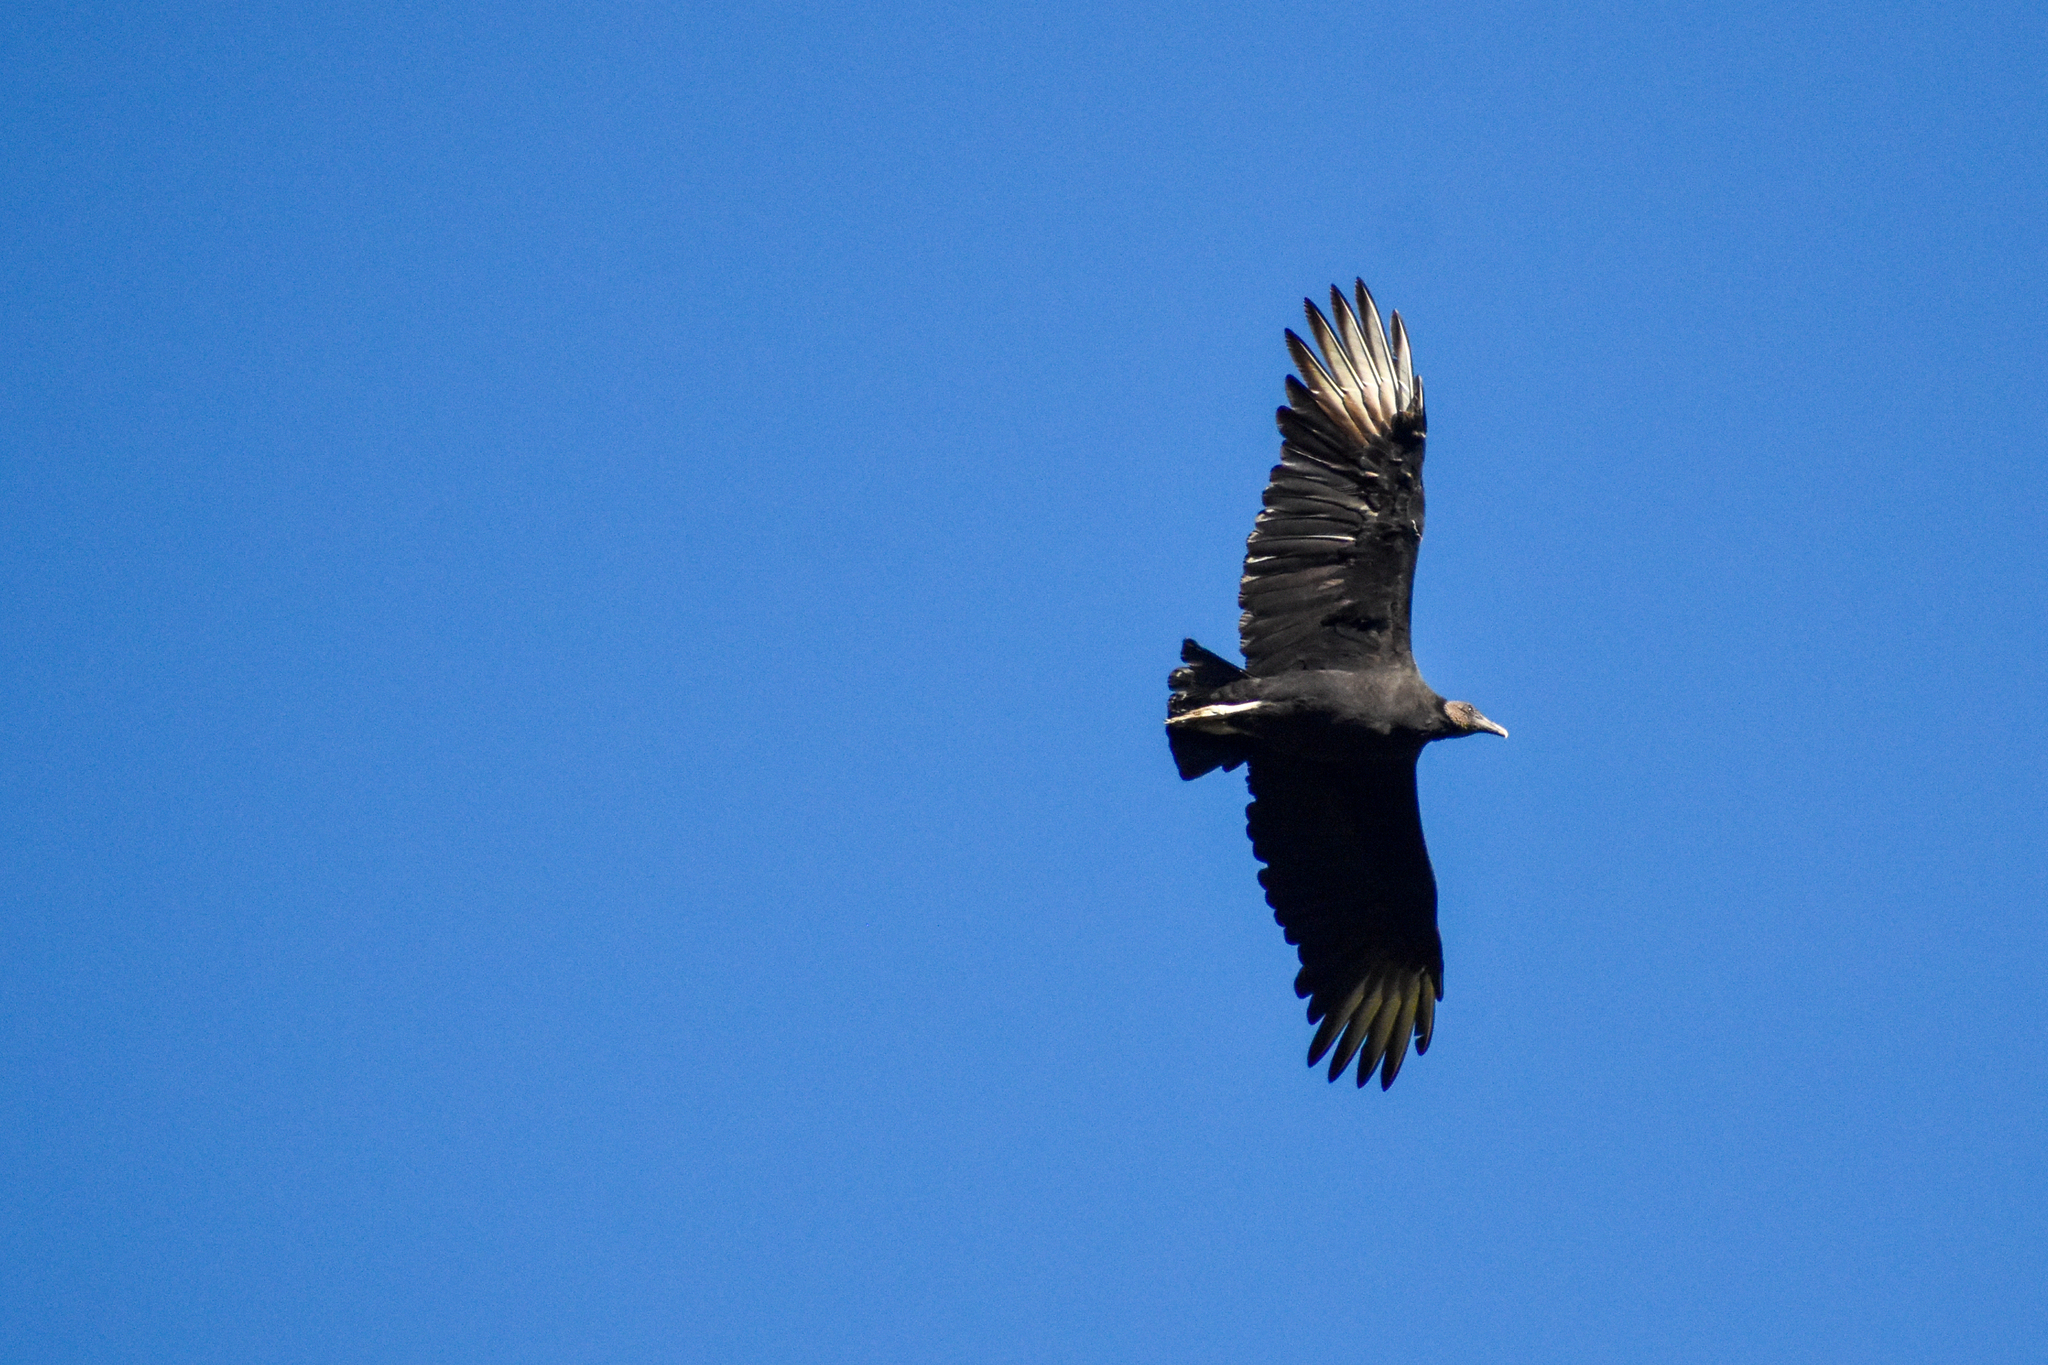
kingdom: Animalia
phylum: Chordata
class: Aves
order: Accipitriformes
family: Cathartidae
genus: Coragyps
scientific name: Coragyps atratus
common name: Black vulture
